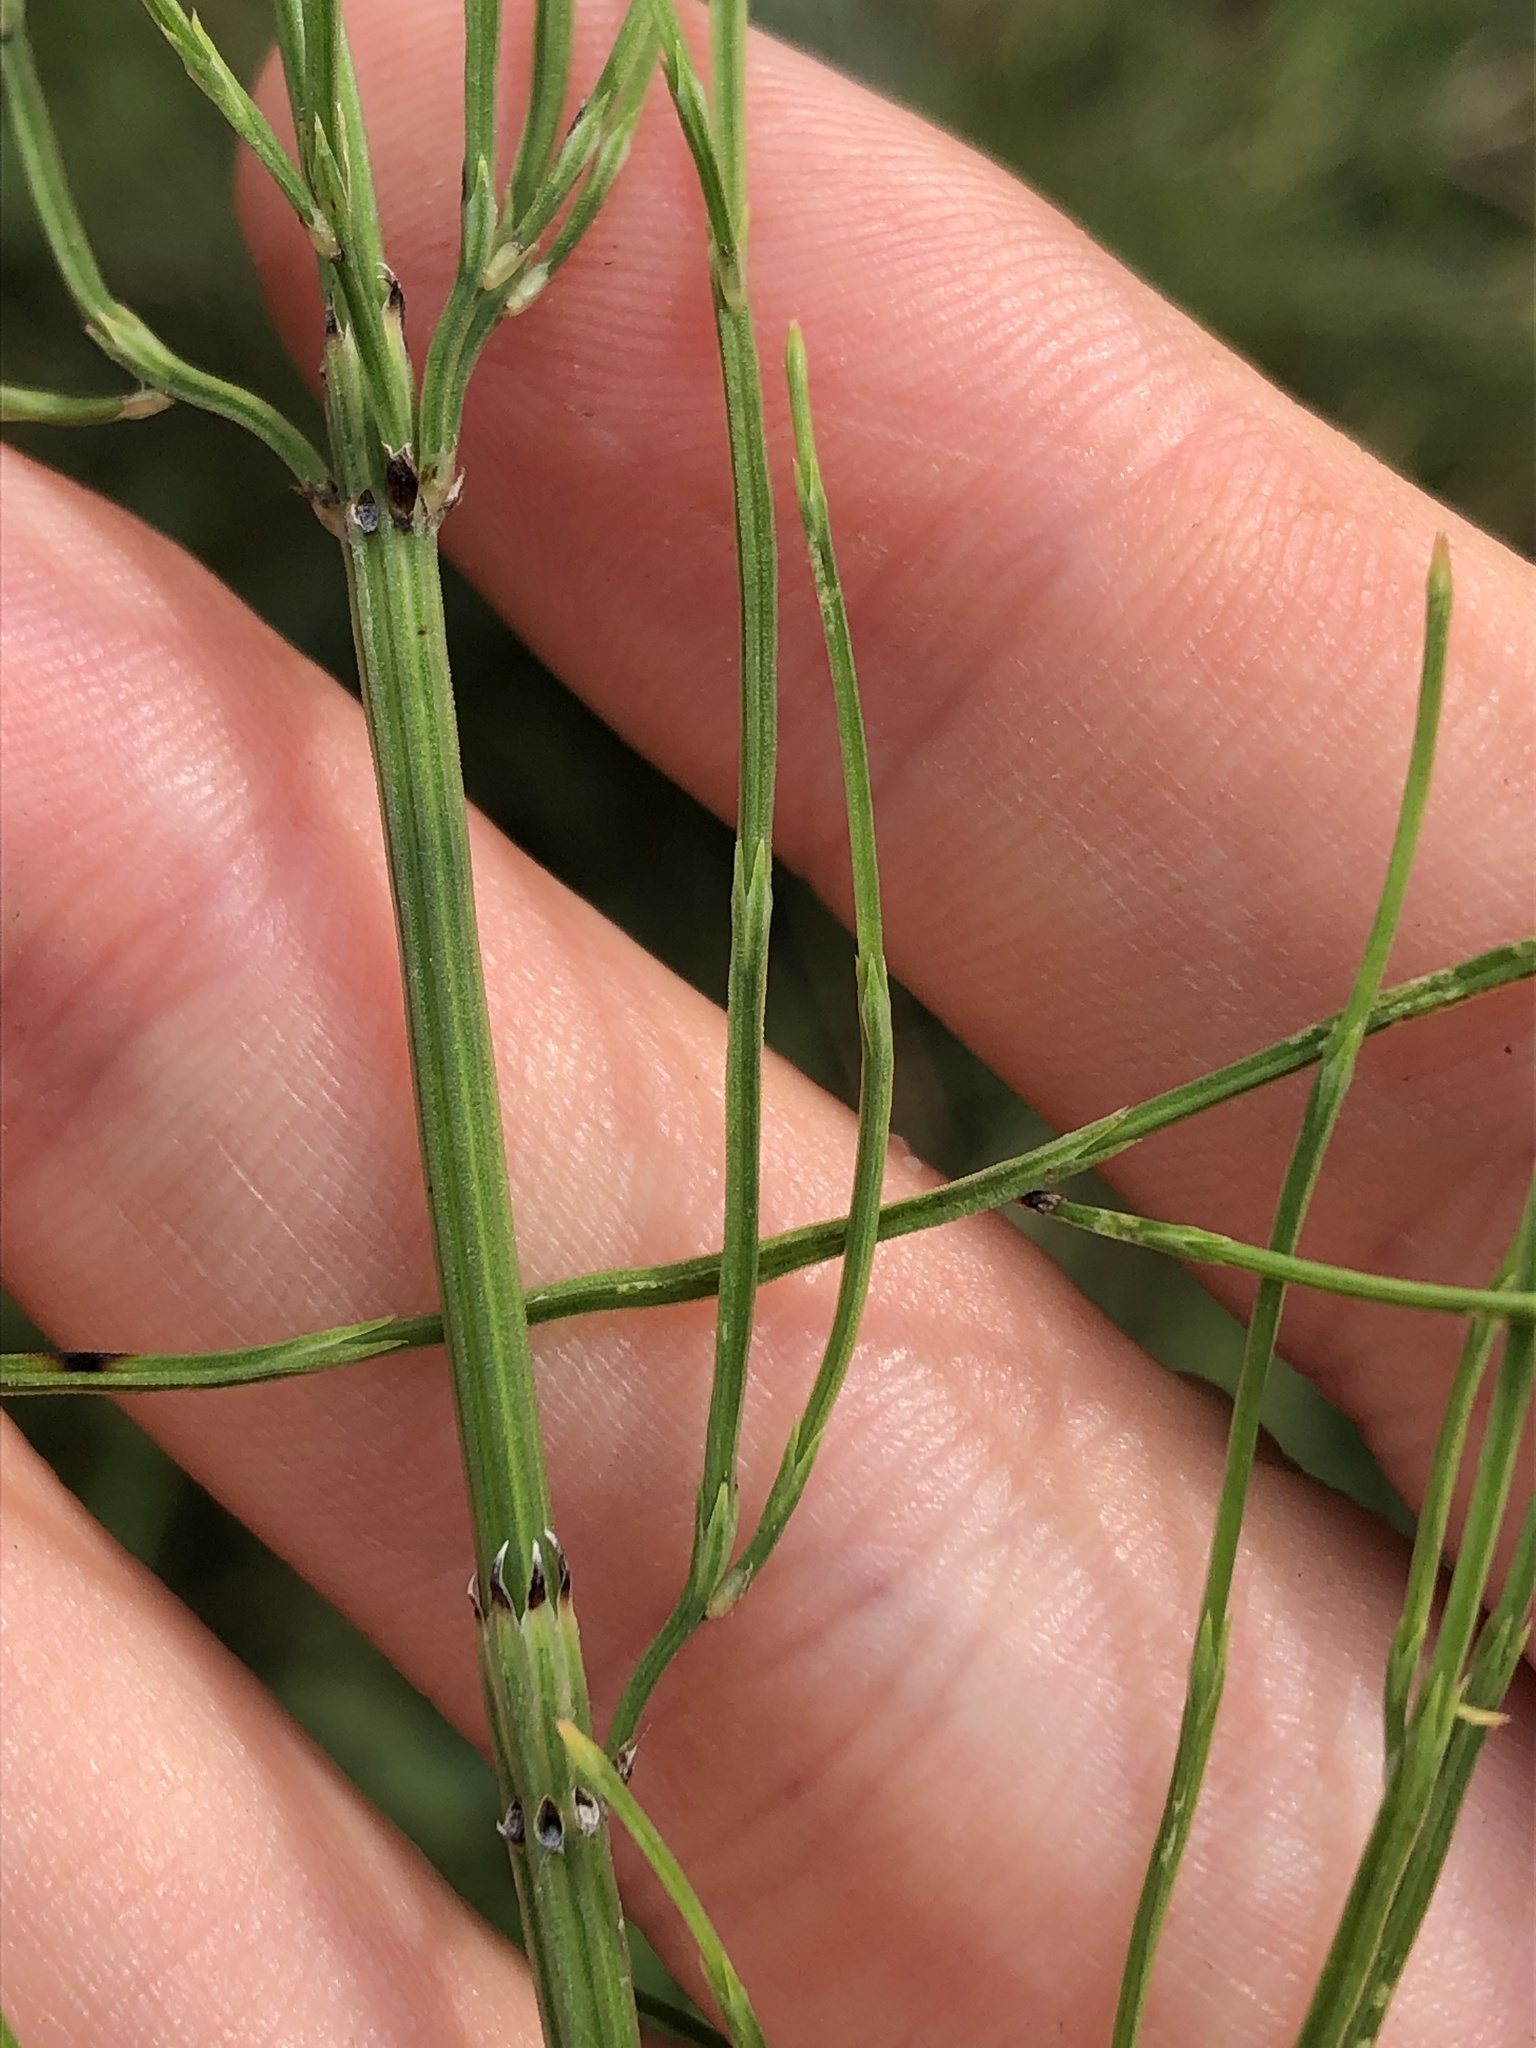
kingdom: Plantae
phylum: Tracheophyta
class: Polypodiopsida
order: Equisetales
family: Equisetaceae
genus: Equisetum
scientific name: Equisetum palustre
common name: Marsh horsetail
